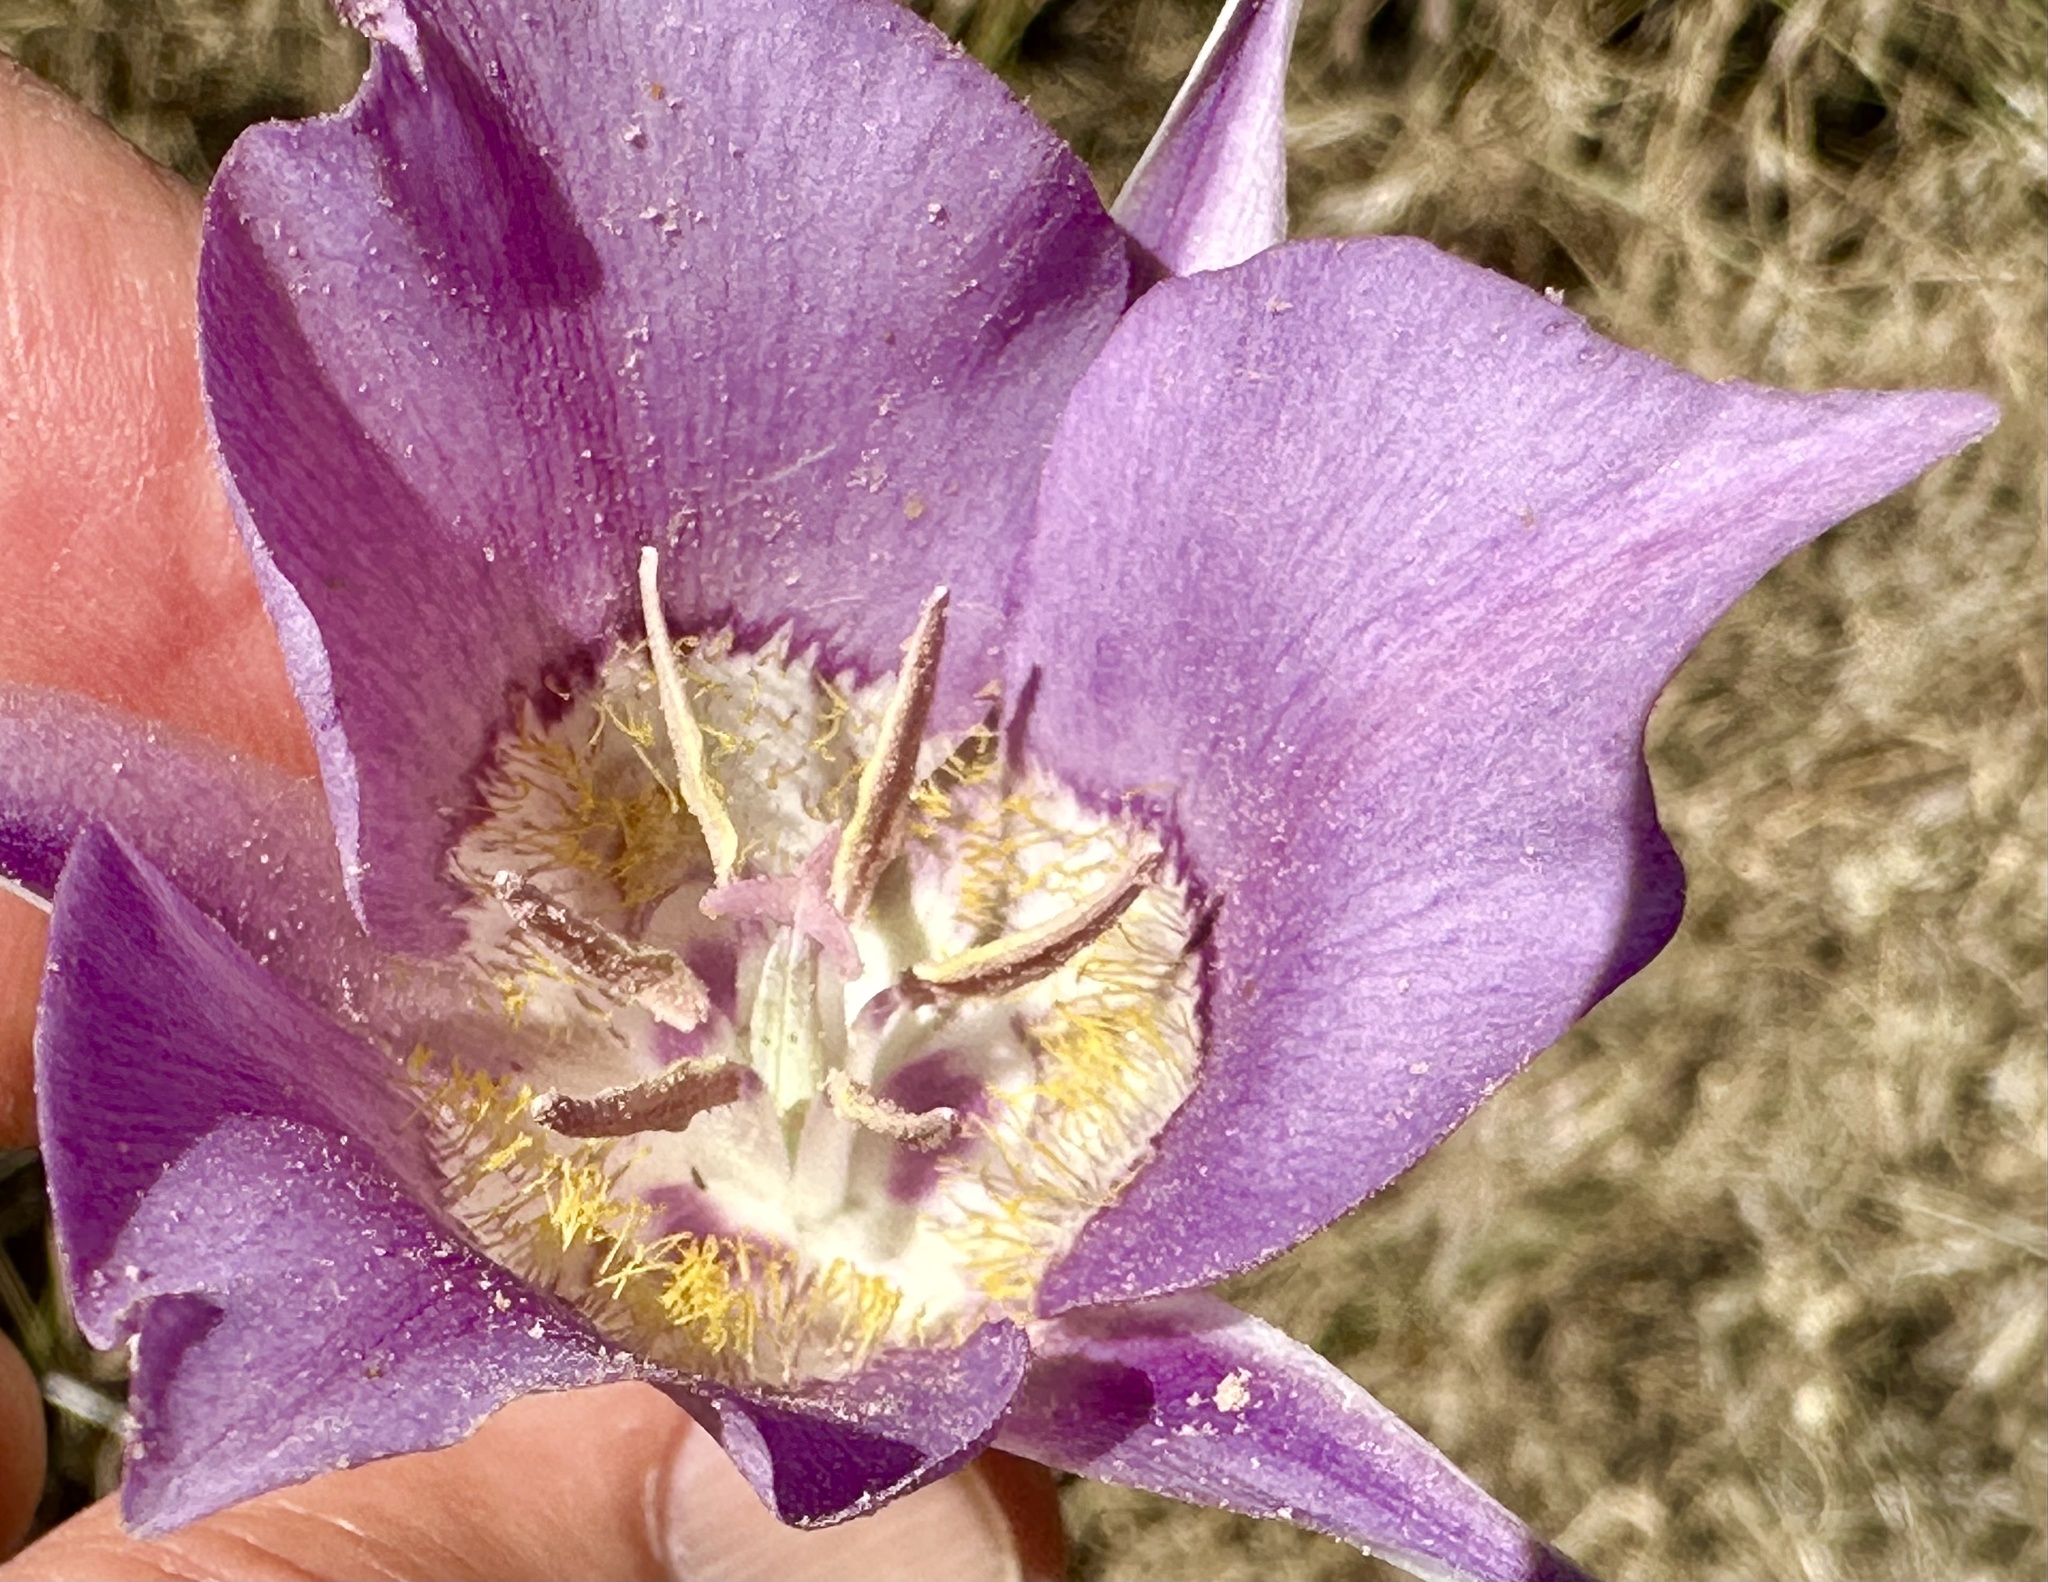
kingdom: Plantae
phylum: Tracheophyta
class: Liliopsida
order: Liliales
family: Liliaceae
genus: Calochortus
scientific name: Calochortus macrocarpus
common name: Green-band mariposa lily
